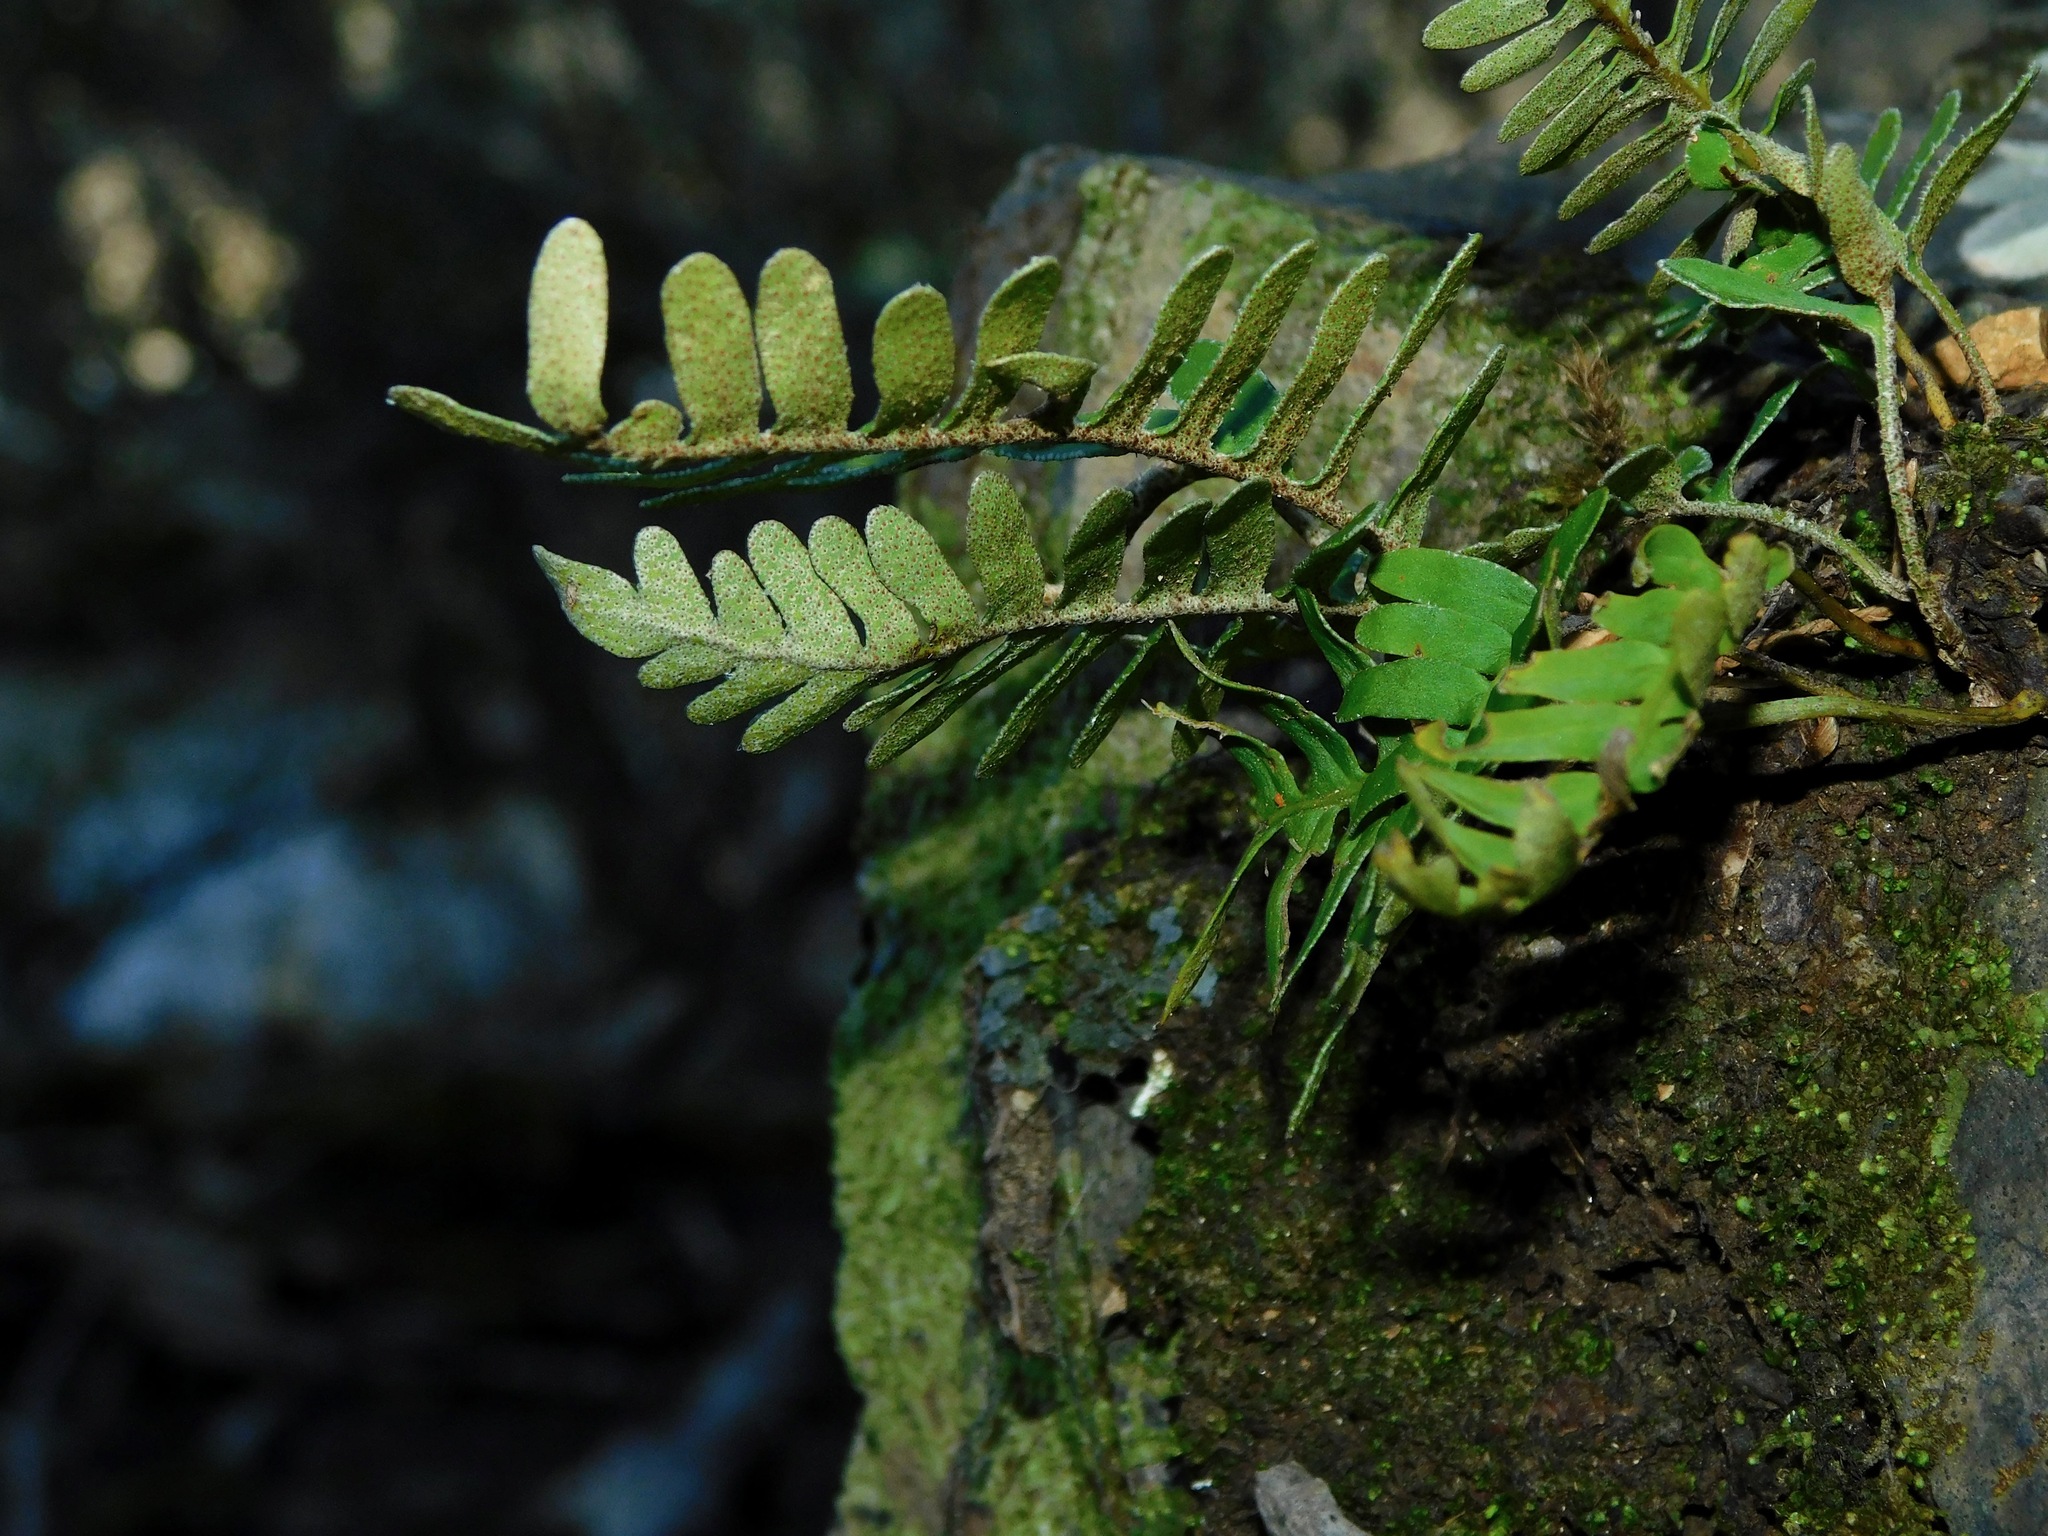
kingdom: Plantae
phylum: Tracheophyta
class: Polypodiopsida
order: Polypodiales
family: Polypodiaceae
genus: Pleopeltis
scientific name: Pleopeltis michauxiana
